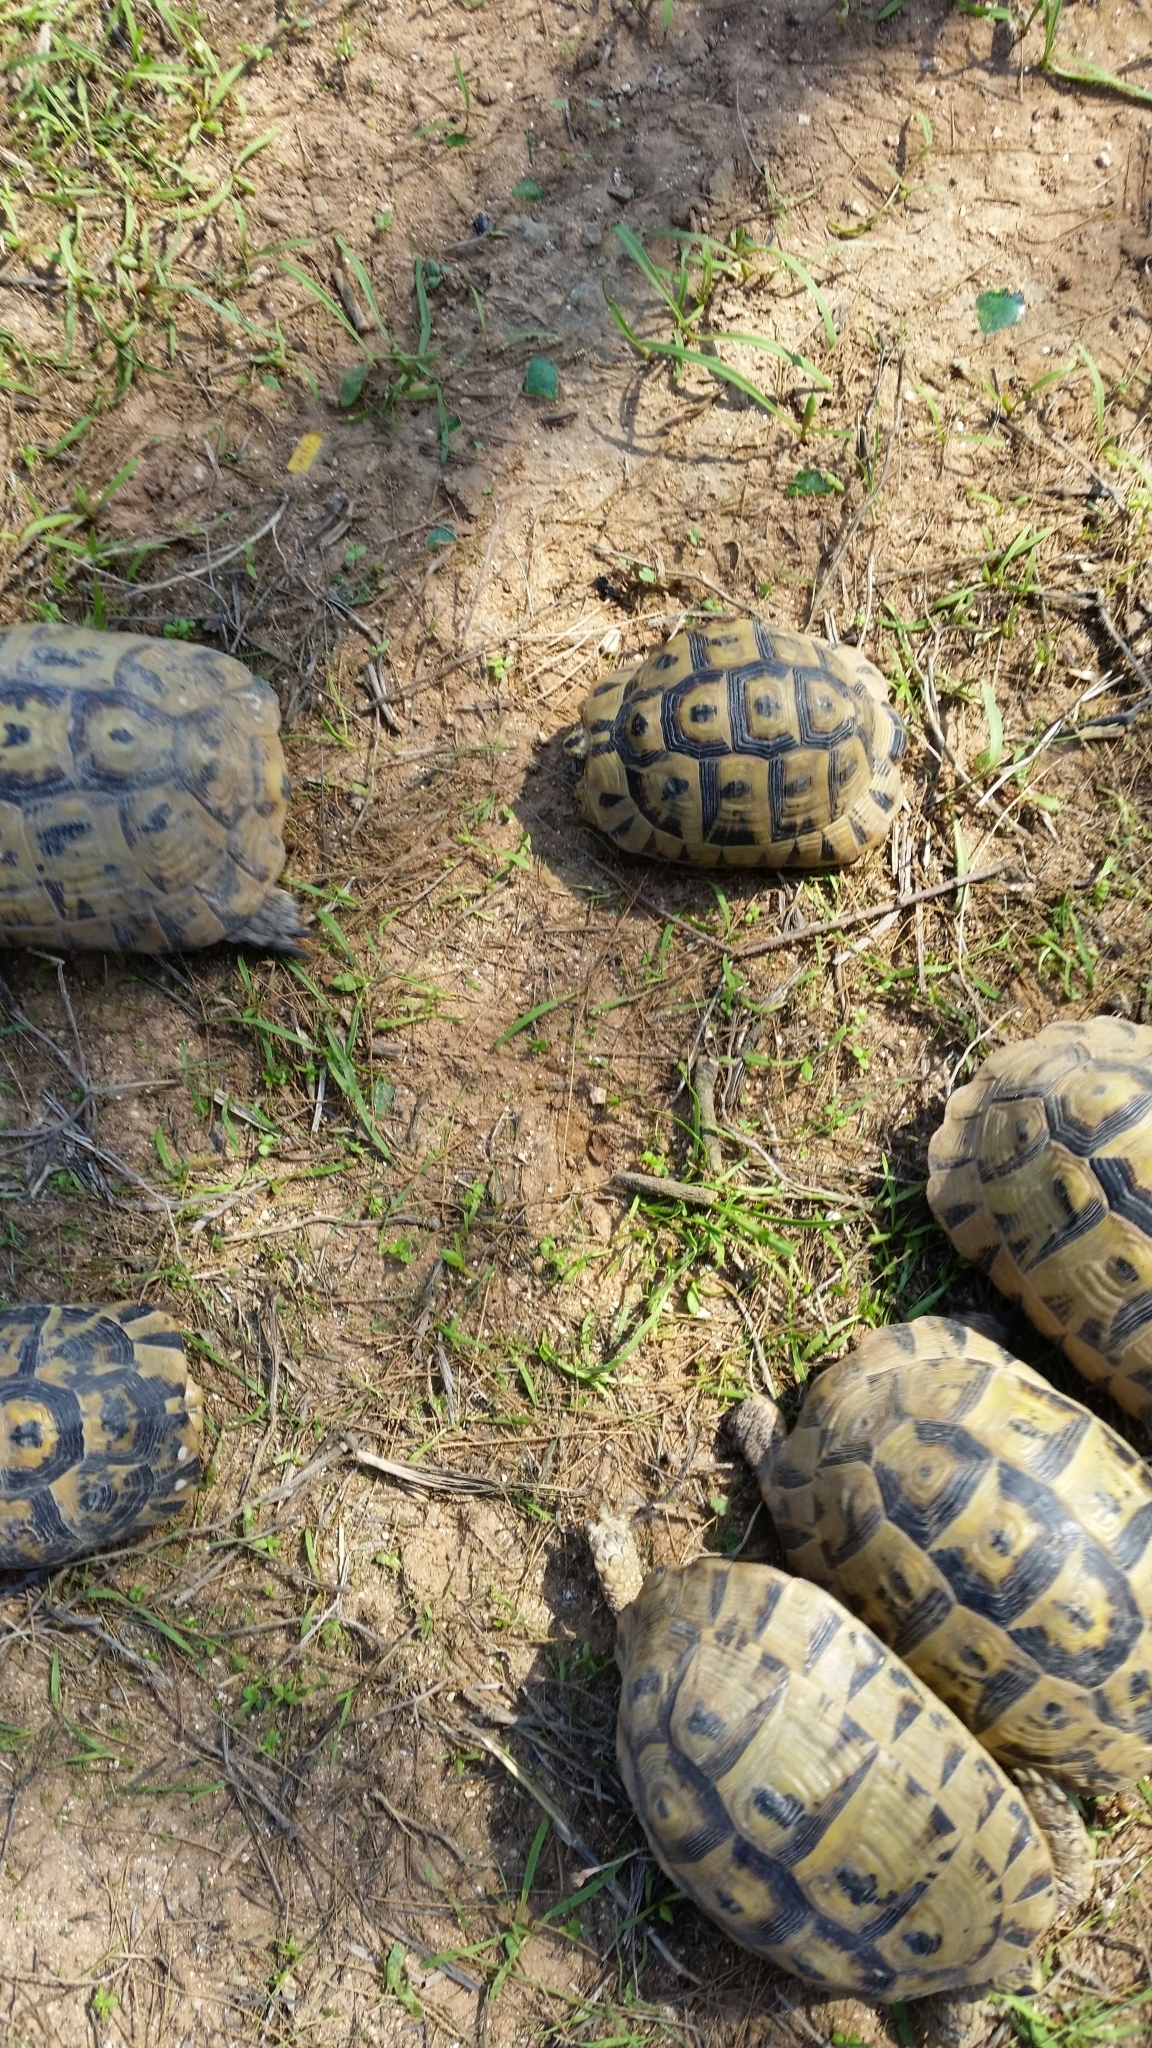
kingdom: Animalia
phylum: Chordata
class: Testudines
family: Testudinidae
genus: Testudo
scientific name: Testudo graeca
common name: Common tortoise
